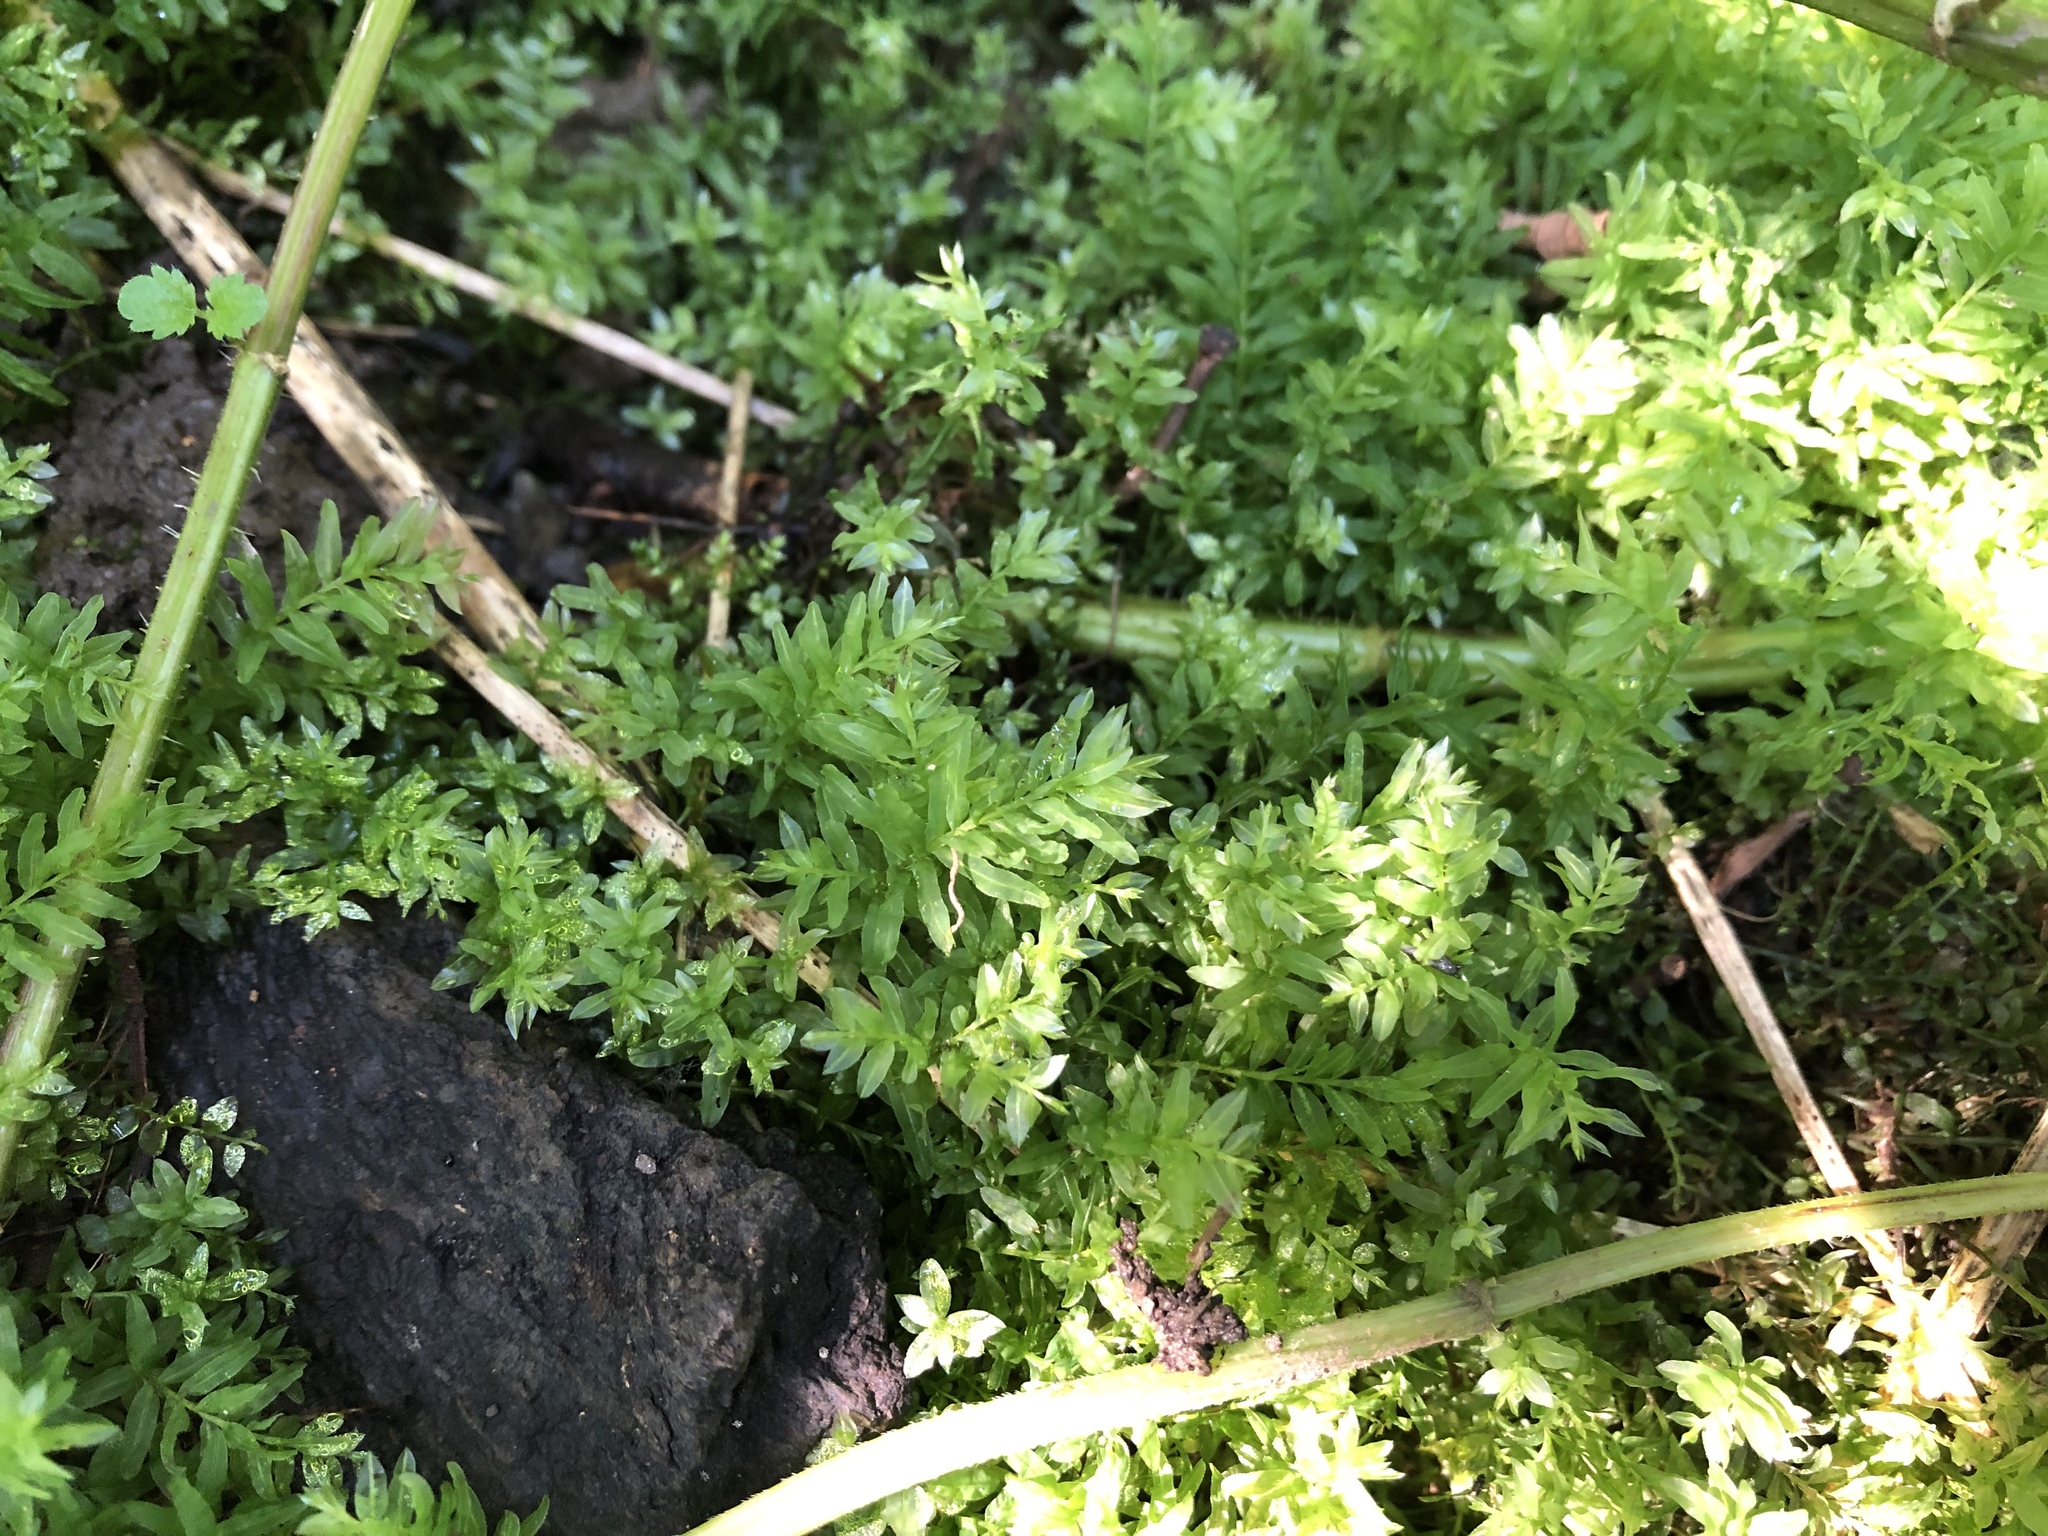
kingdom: Plantae
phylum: Bryophyta
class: Bryopsida
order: Bryales
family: Mniaceae
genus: Plagiomnium
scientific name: Plagiomnium undulatum
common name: Hart's-tongue thyme-moss
